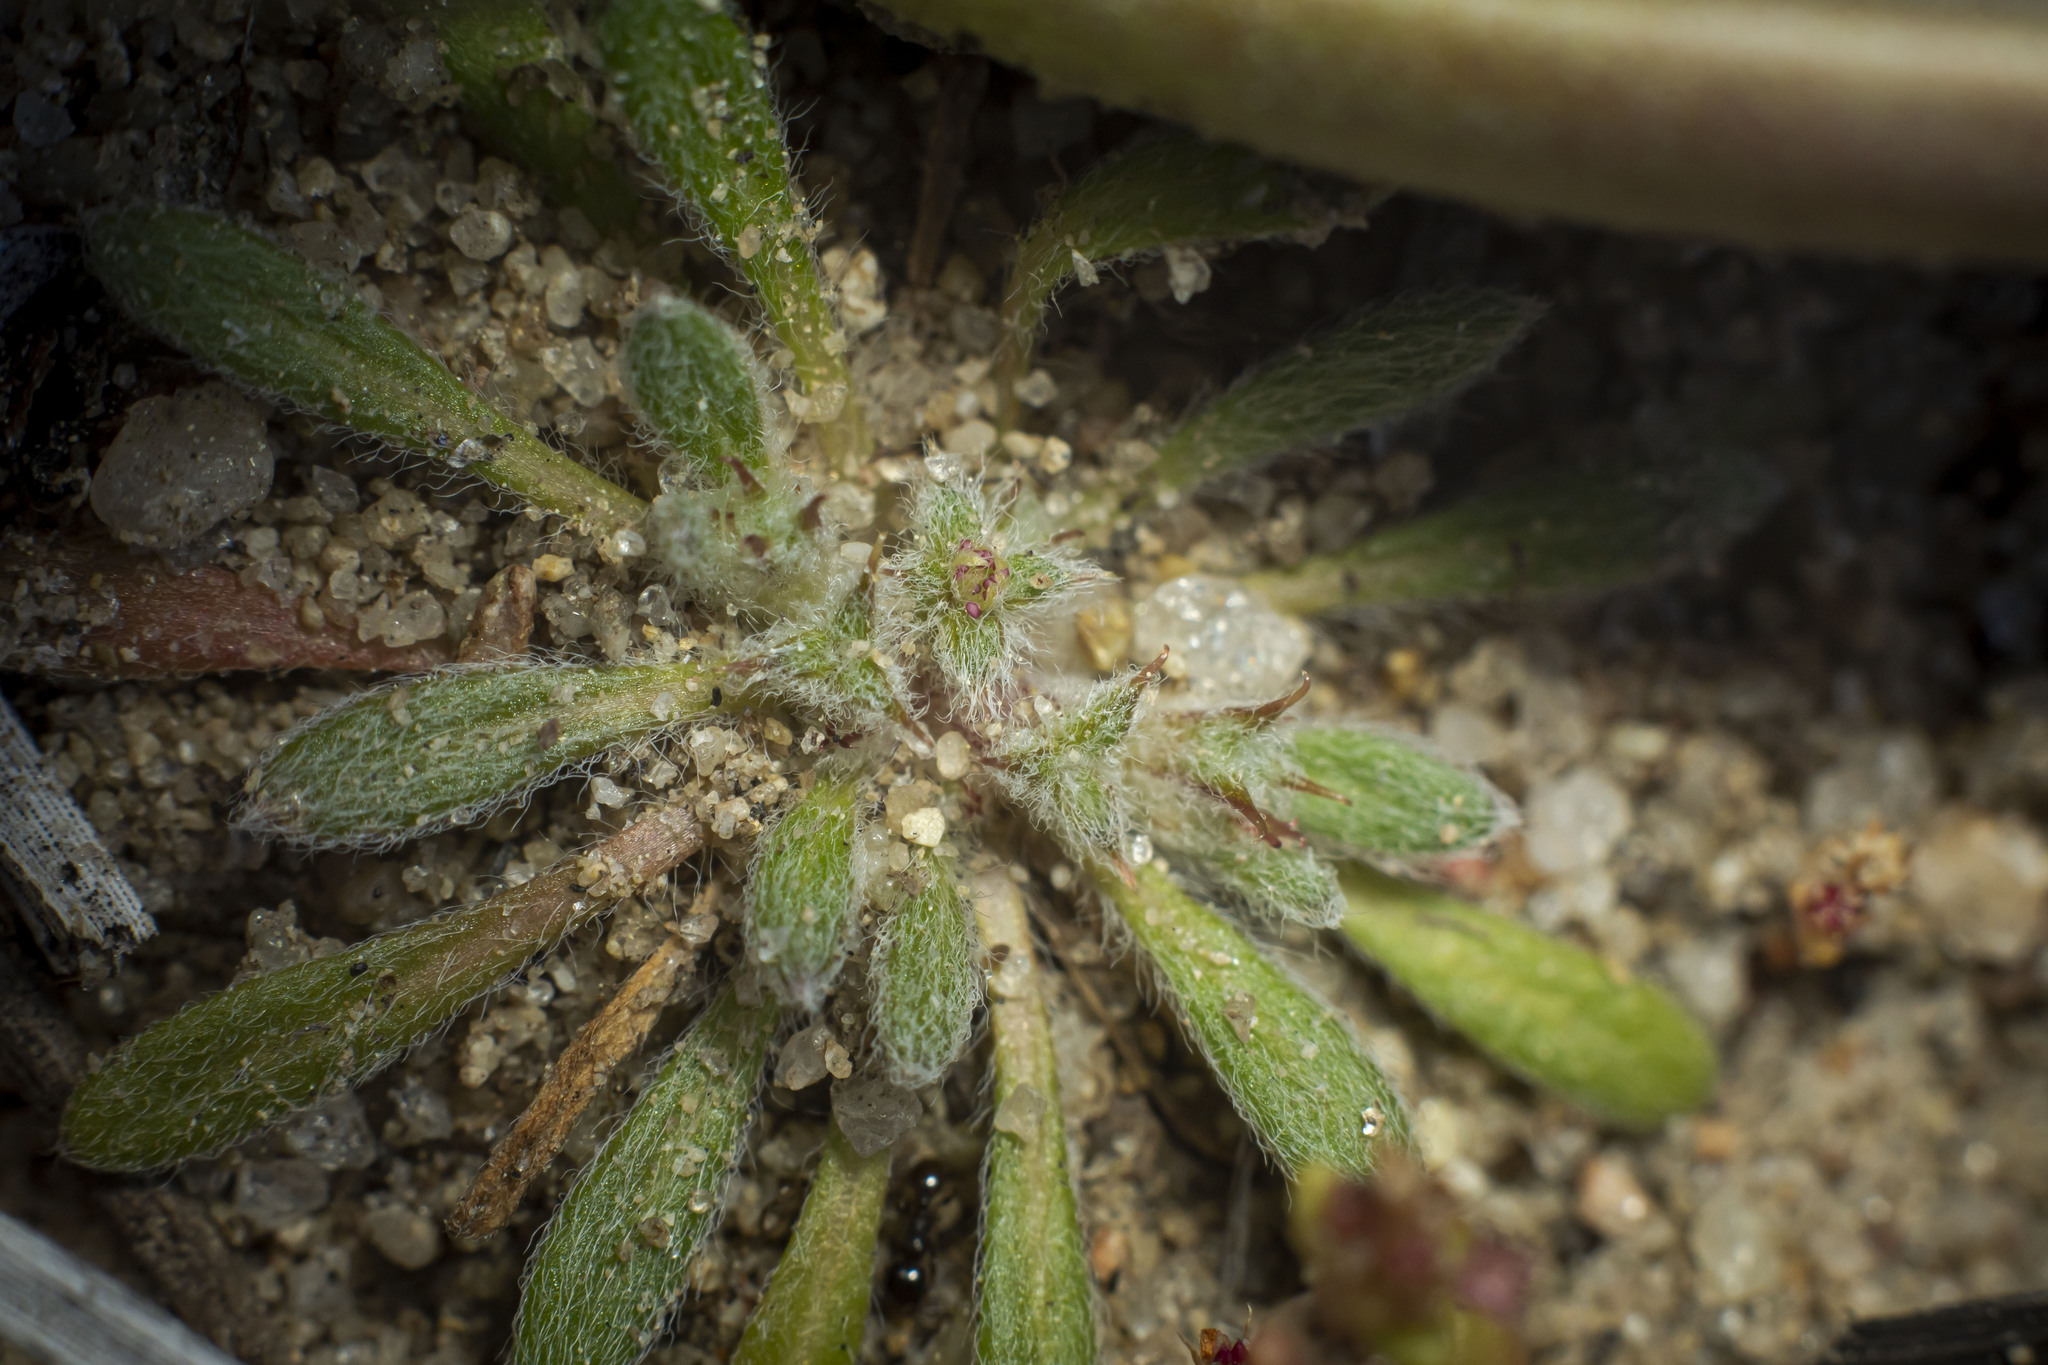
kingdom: Plantae
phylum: Tracheophyta
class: Magnoliopsida
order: Caryophyllales
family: Polygonaceae
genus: Chorizanthe
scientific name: Chorizanthe orcuttiana
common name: Orcutt's spineflower
